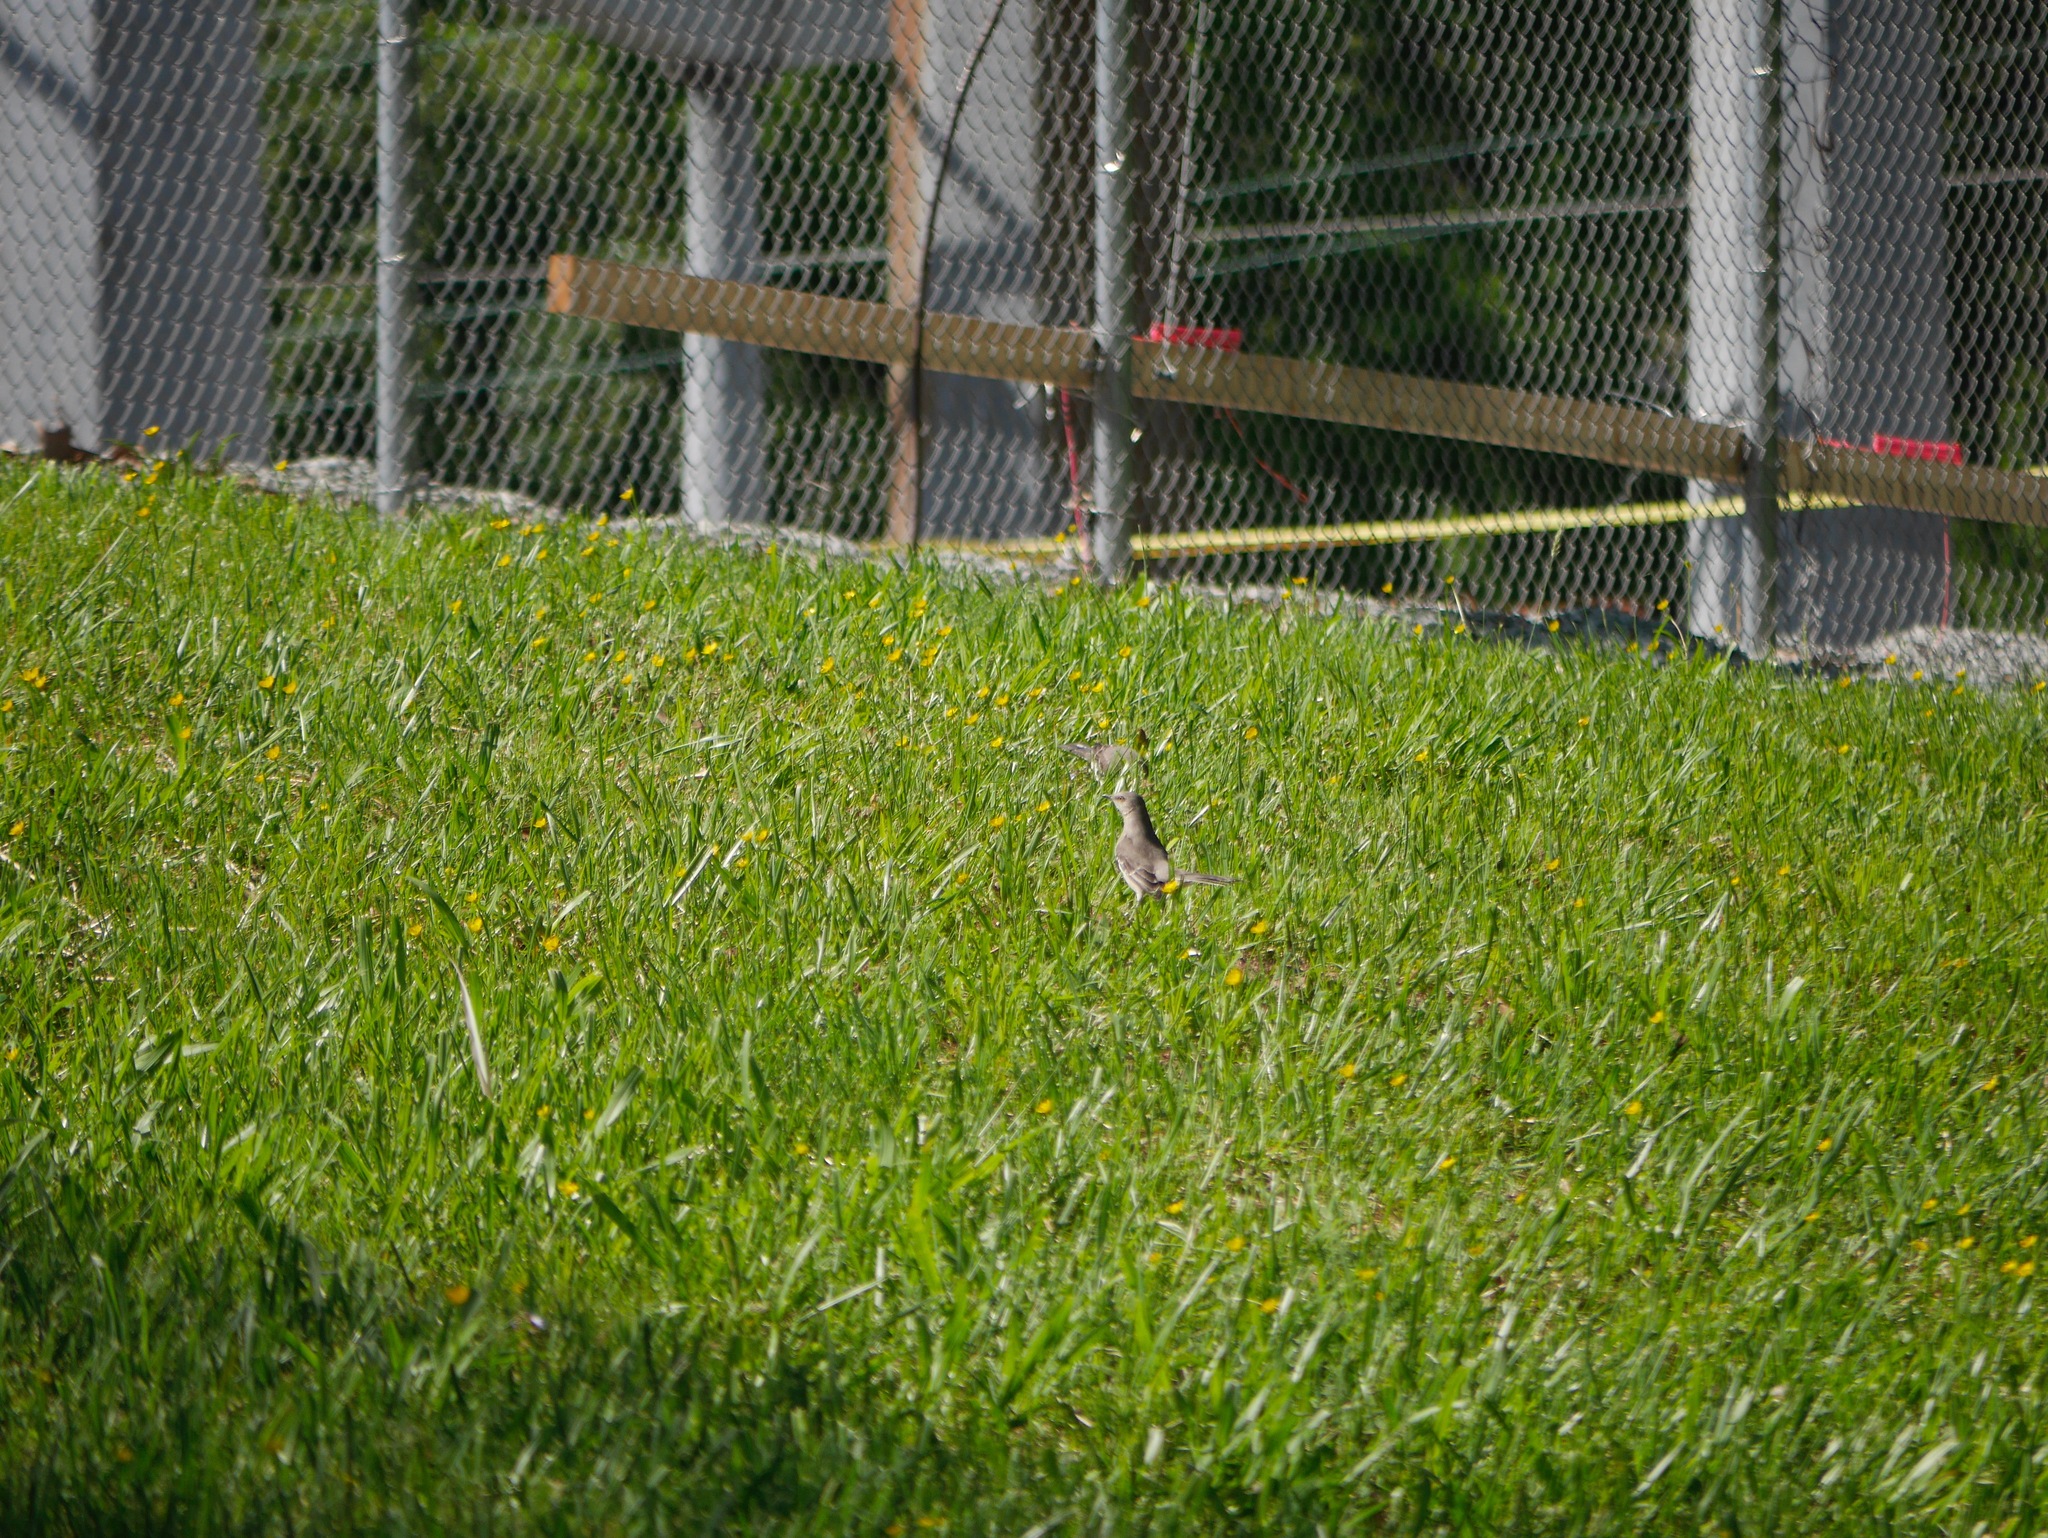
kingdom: Animalia
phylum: Chordata
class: Aves
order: Passeriformes
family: Mimidae
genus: Mimus
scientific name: Mimus polyglottos
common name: Northern mockingbird
